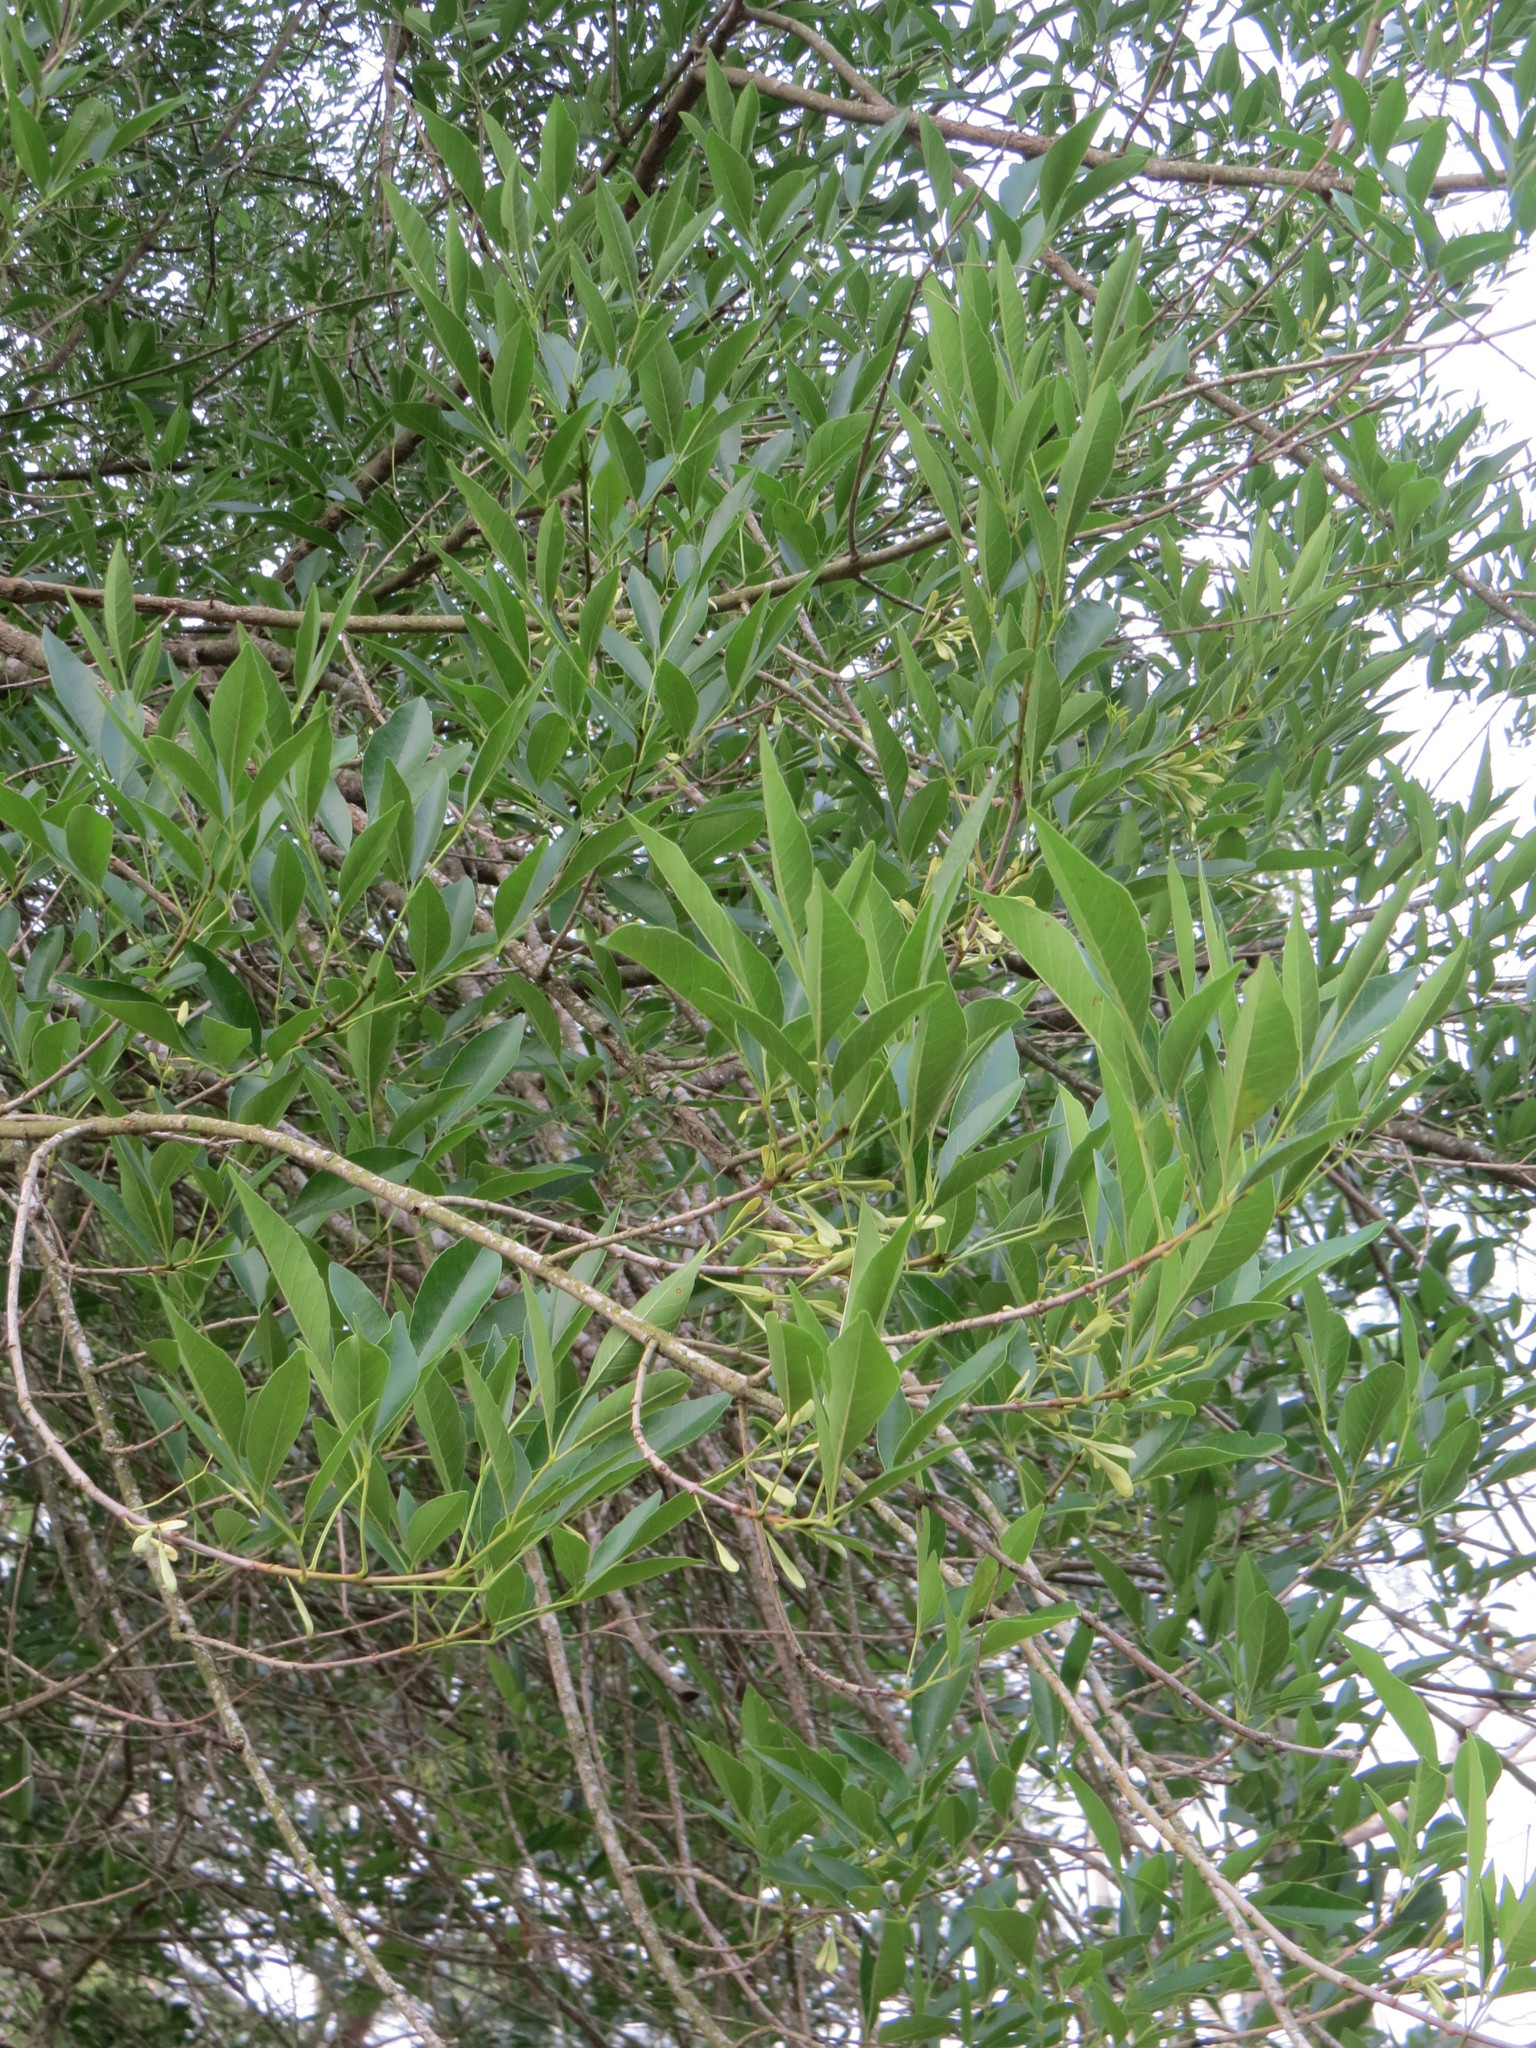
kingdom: Plantae
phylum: Tracheophyta
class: Magnoliopsida
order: Lamiales
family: Oleaceae
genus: Fraxinus
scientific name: Fraxinus berlandieriana
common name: Berlandier ash
